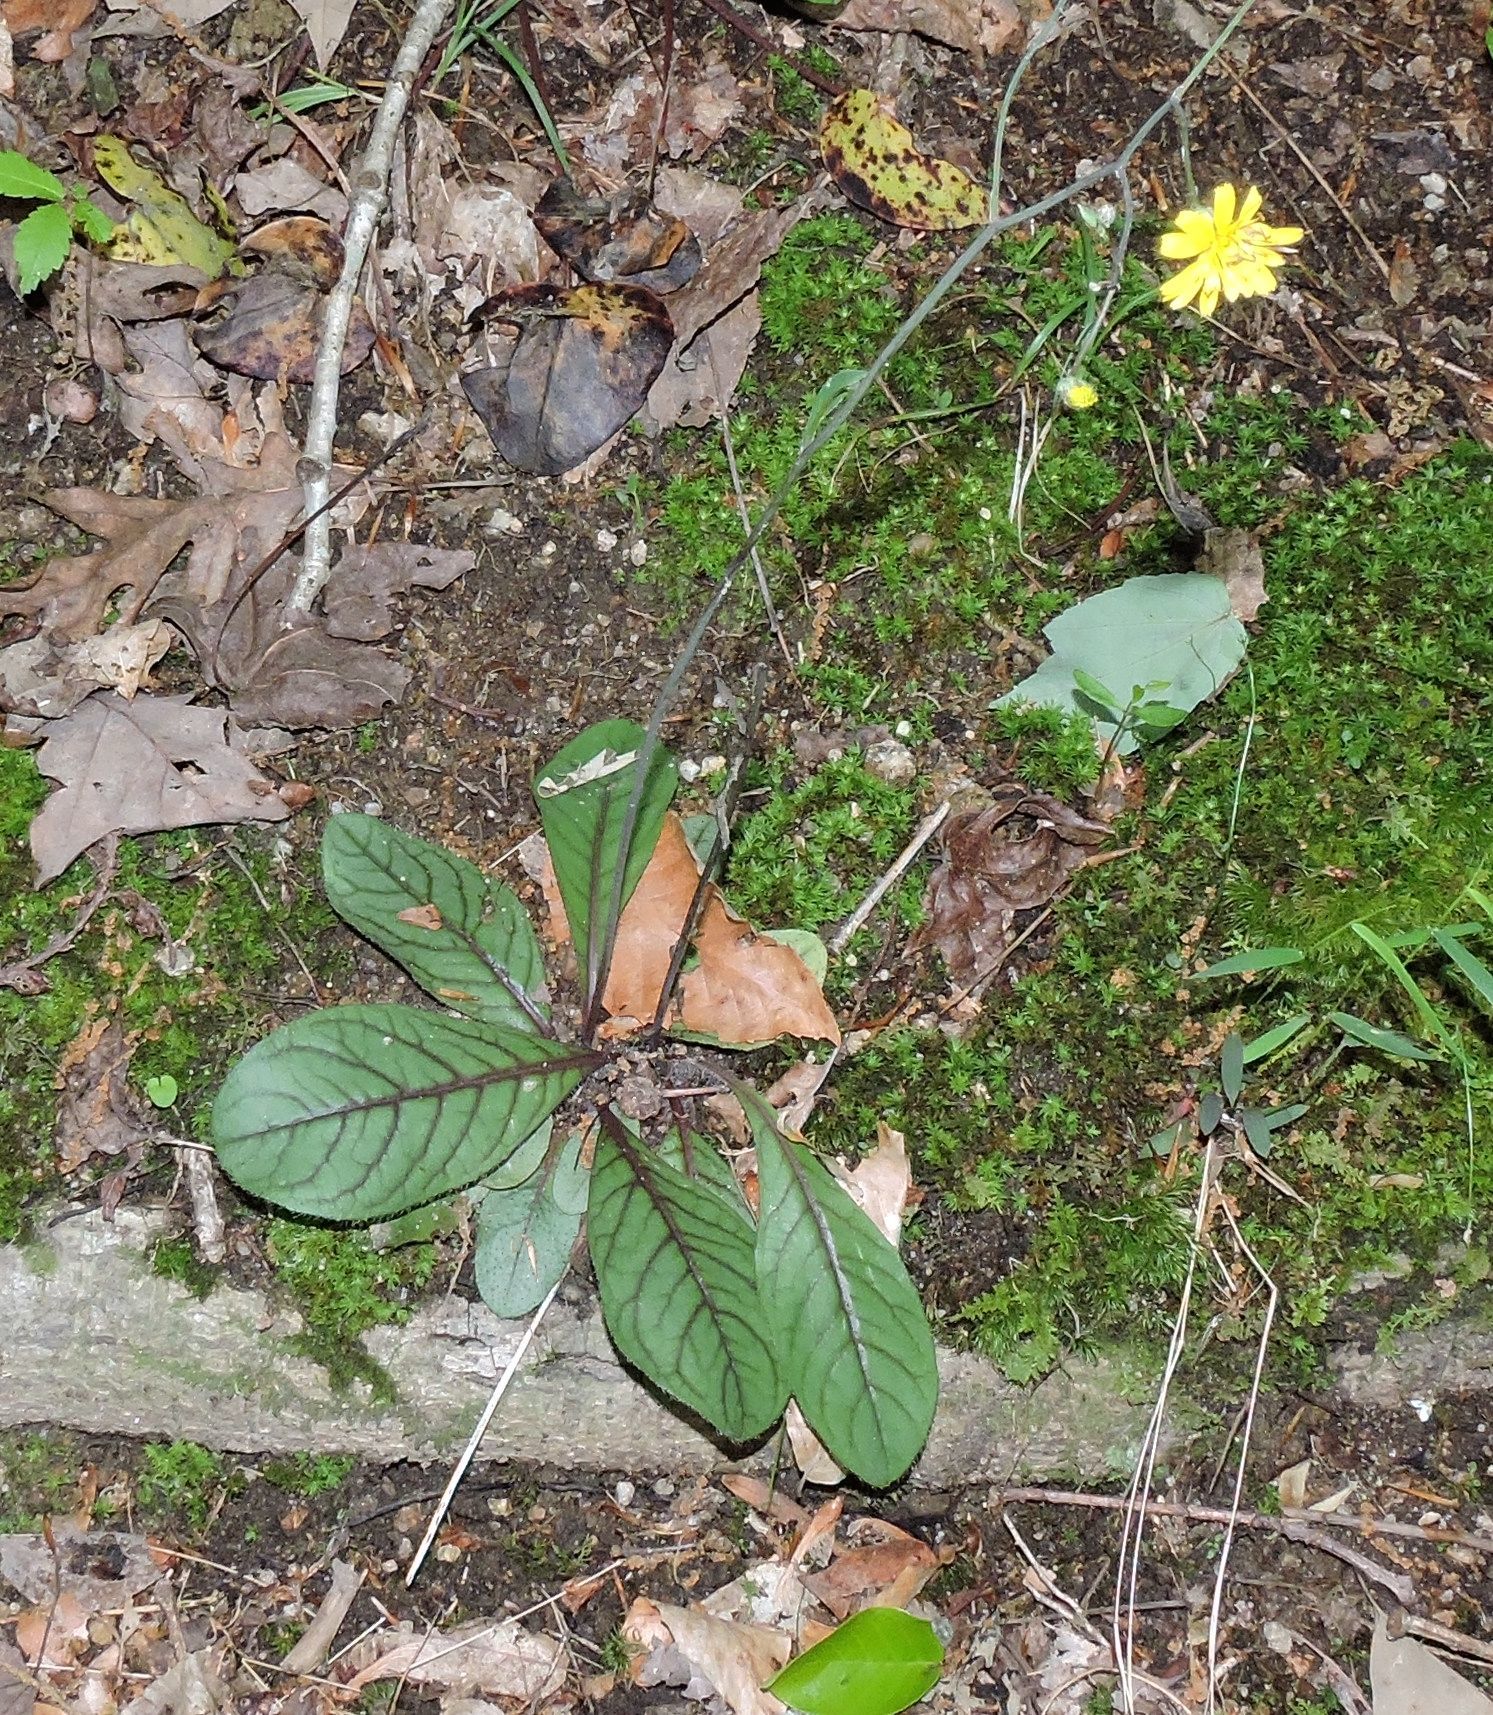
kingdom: Plantae
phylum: Tracheophyta
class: Magnoliopsida
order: Asterales
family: Asteraceae
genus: Hieracium
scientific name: Hieracium venosum
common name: Rattlesnake hawkweed
